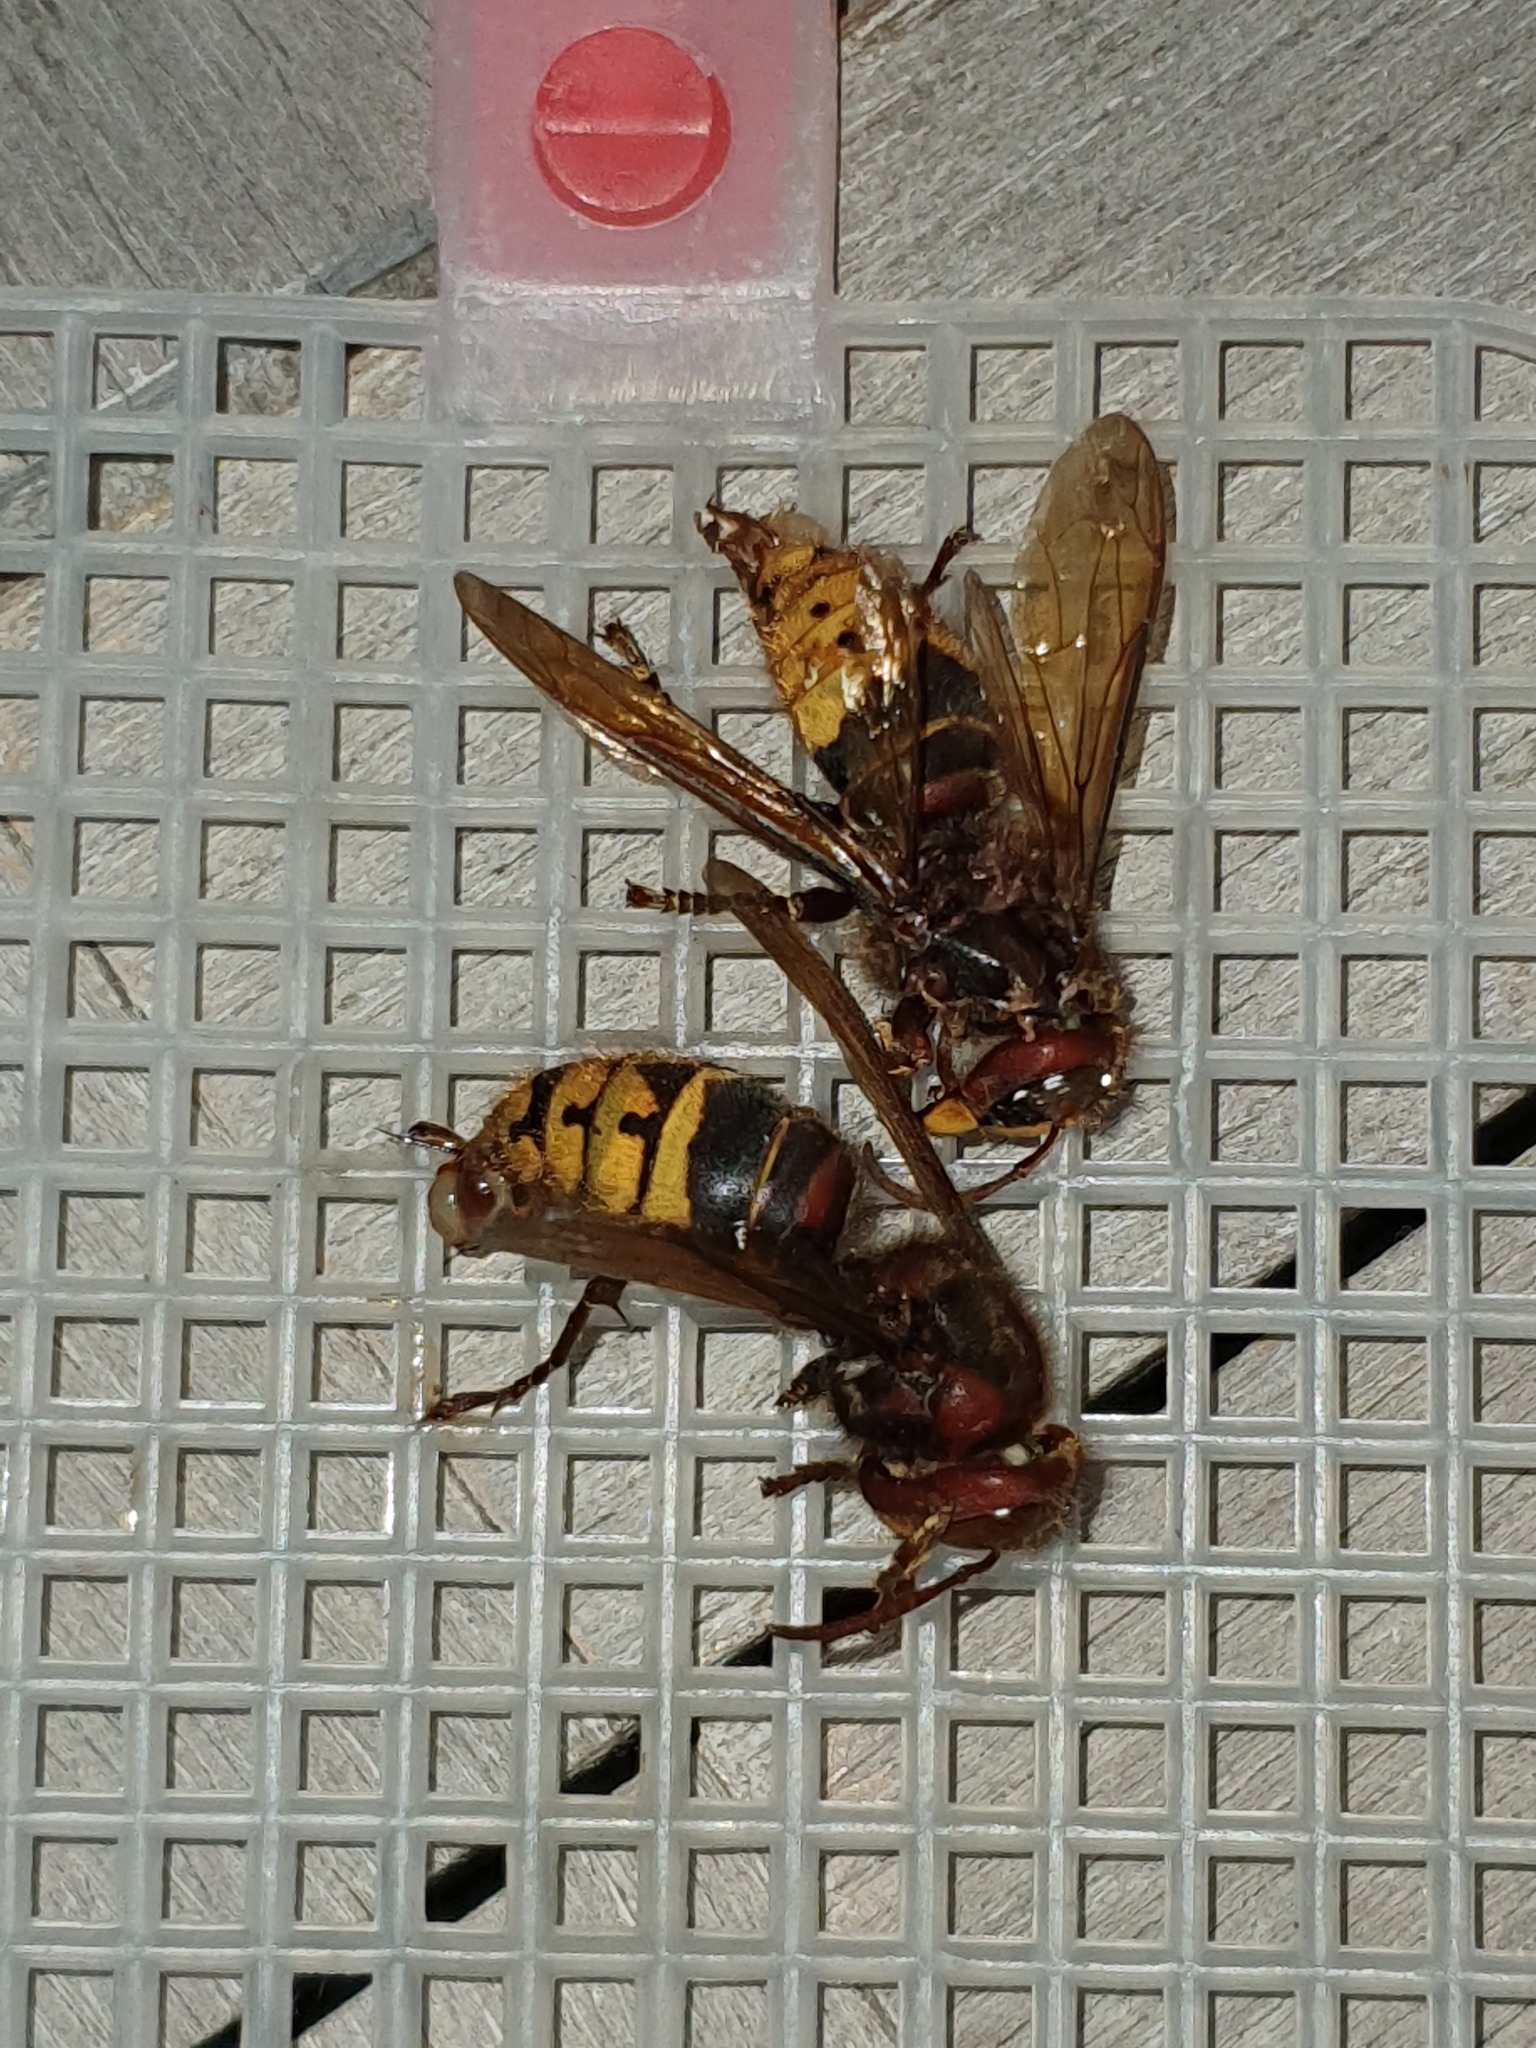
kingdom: Animalia
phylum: Arthropoda
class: Insecta
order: Hymenoptera
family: Vespidae
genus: Vespa
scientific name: Vespa crabro
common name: Hornet
